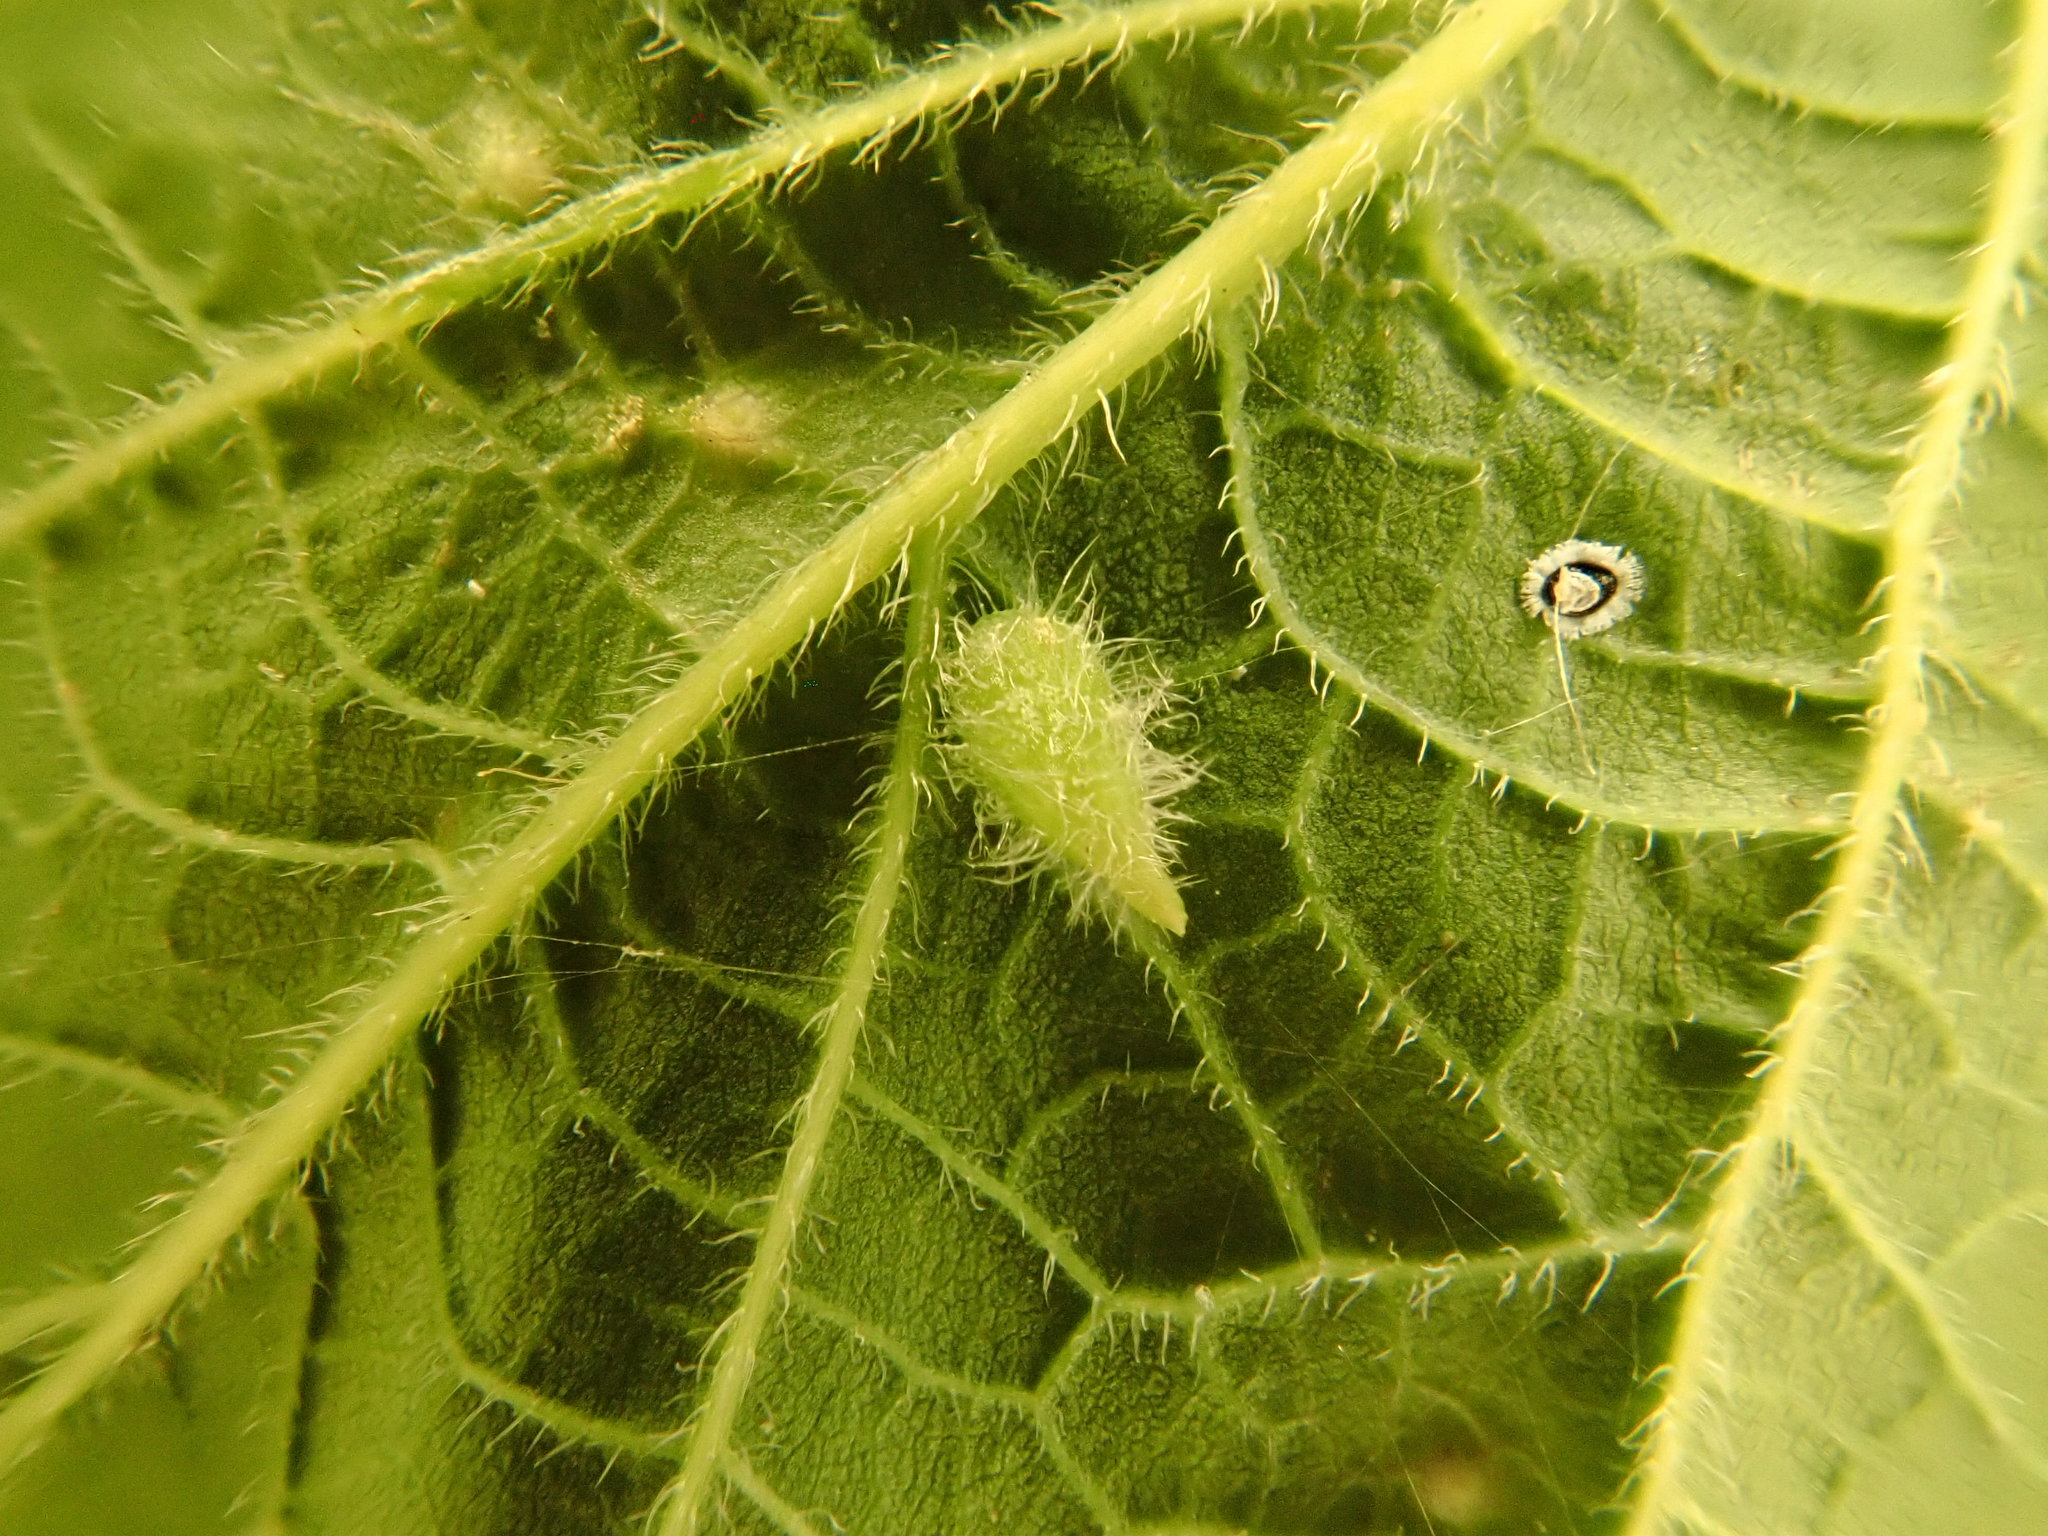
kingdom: Animalia
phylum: Arthropoda
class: Insecta
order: Diptera
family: Cecidomyiidae
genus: Celticecis
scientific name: Celticecis supina
